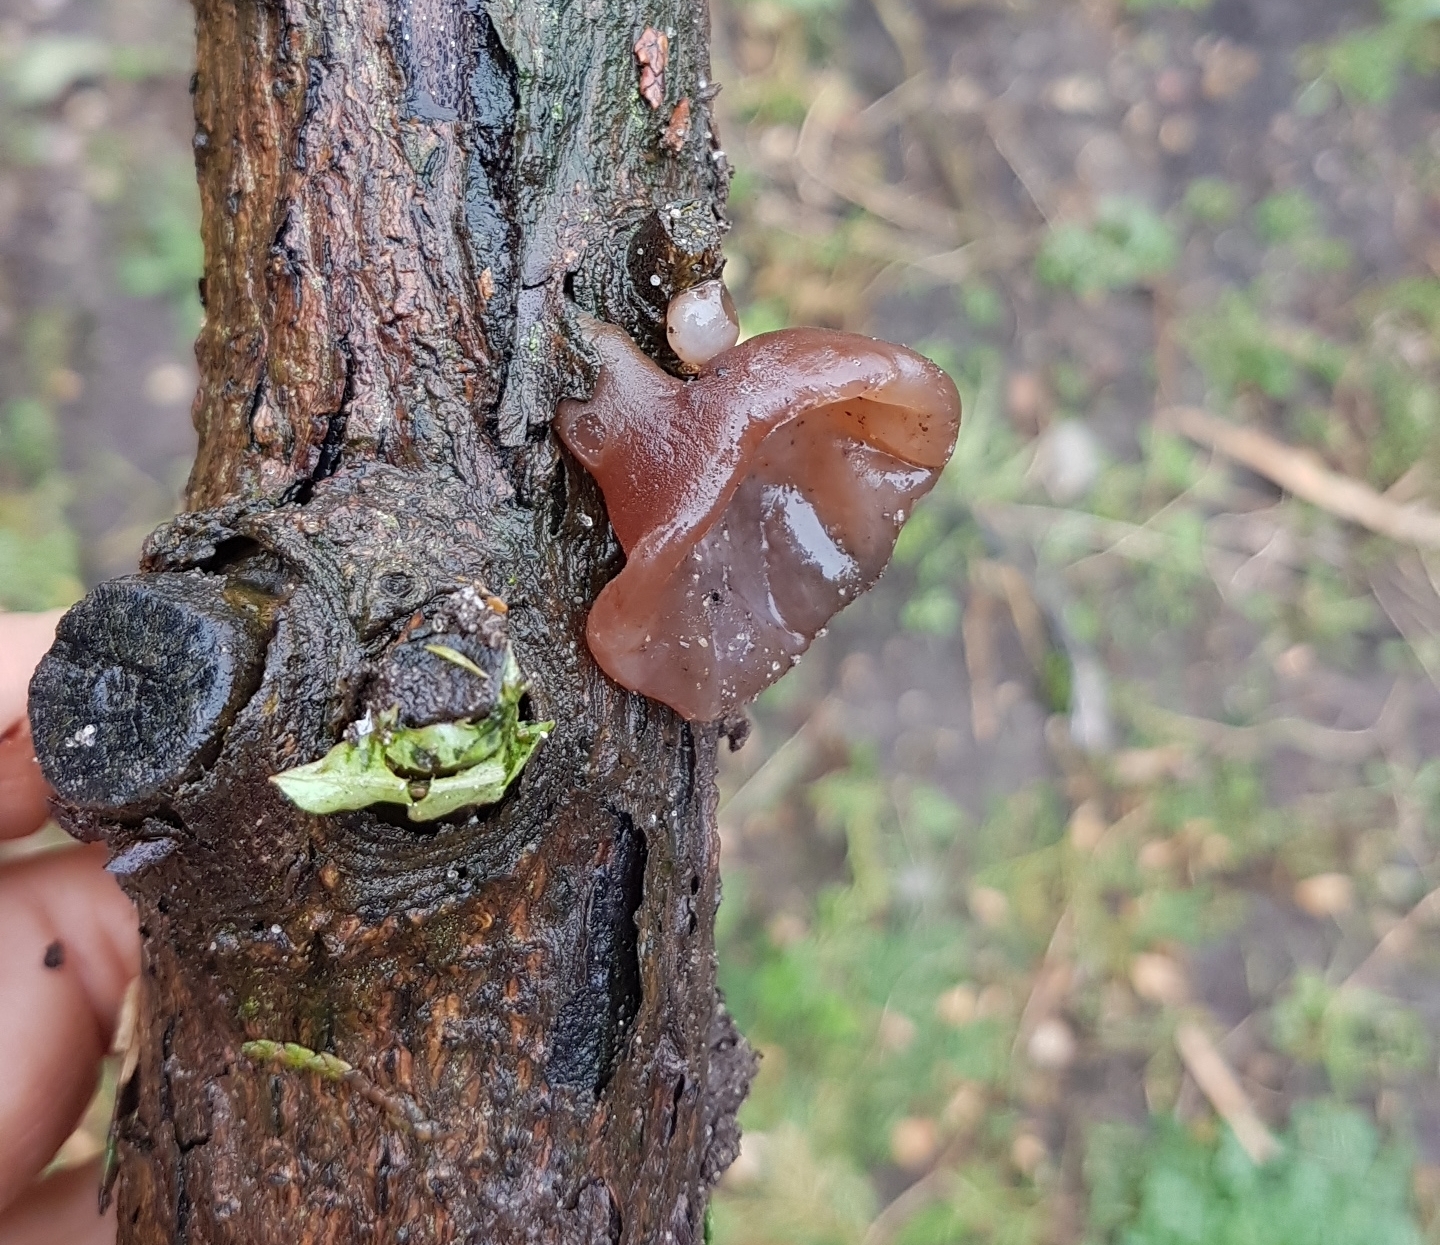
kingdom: Fungi
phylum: Basidiomycota
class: Agaricomycetes
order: Auriculariales
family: Auriculariaceae
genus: Auricularia
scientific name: Auricularia auricula-judae
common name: Jelly ear
